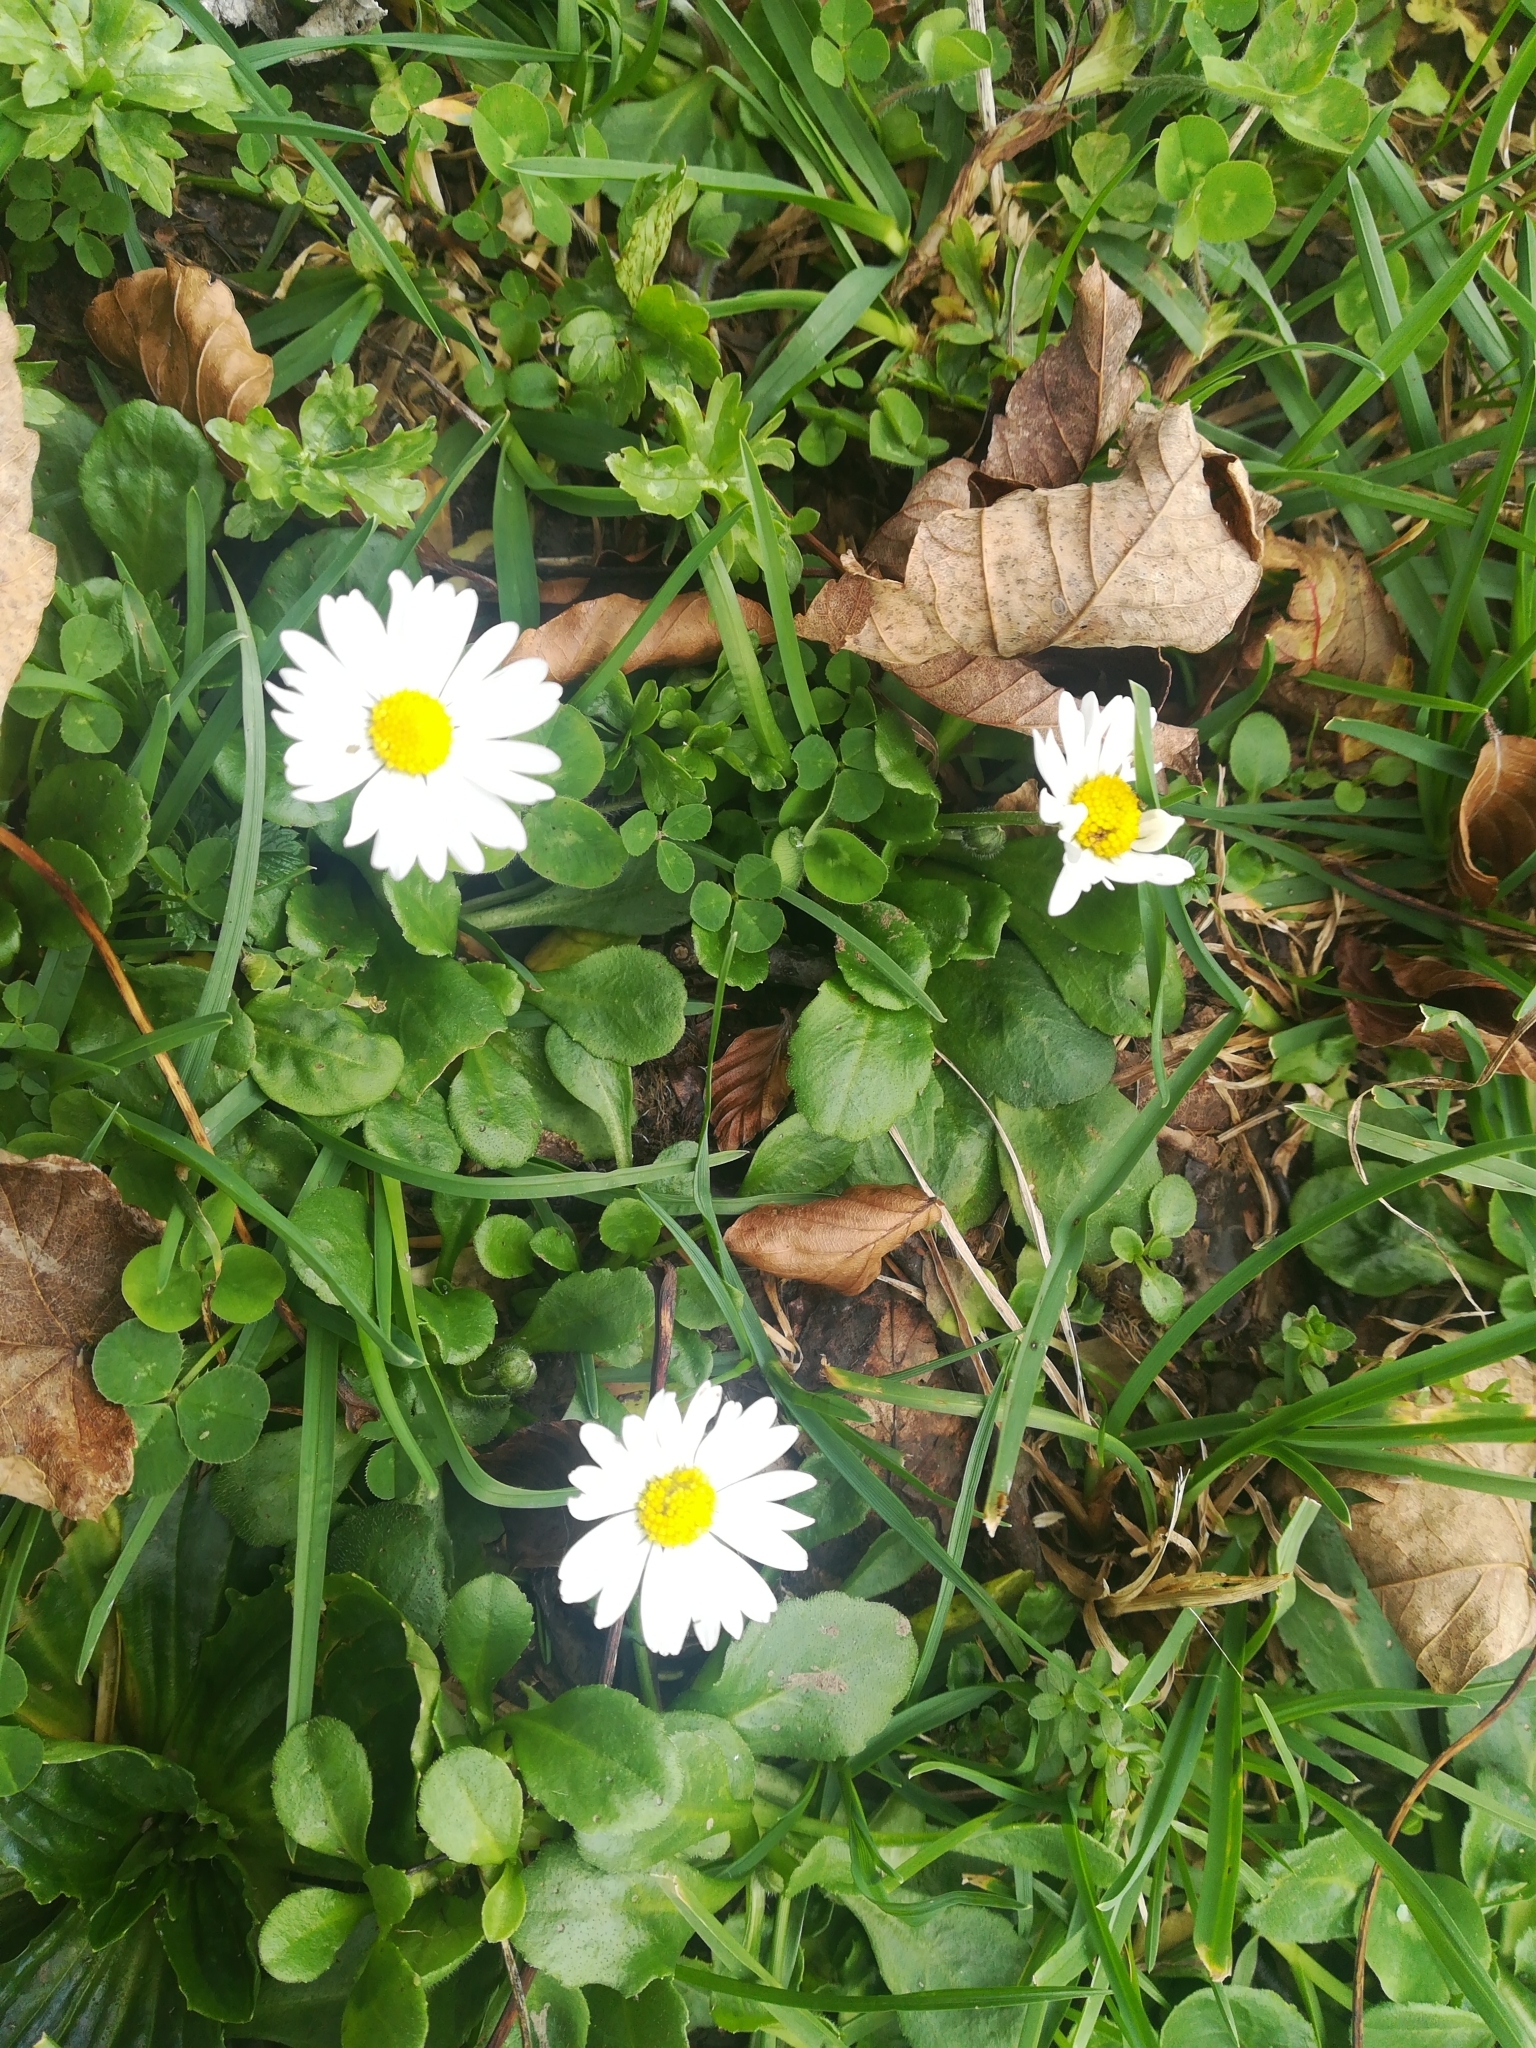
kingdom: Plantae
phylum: Tracheophyta
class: Magnoliopsida
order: Asterales
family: Asteraceae
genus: Bellis
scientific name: Bellis perennis
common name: Lawndaisy
